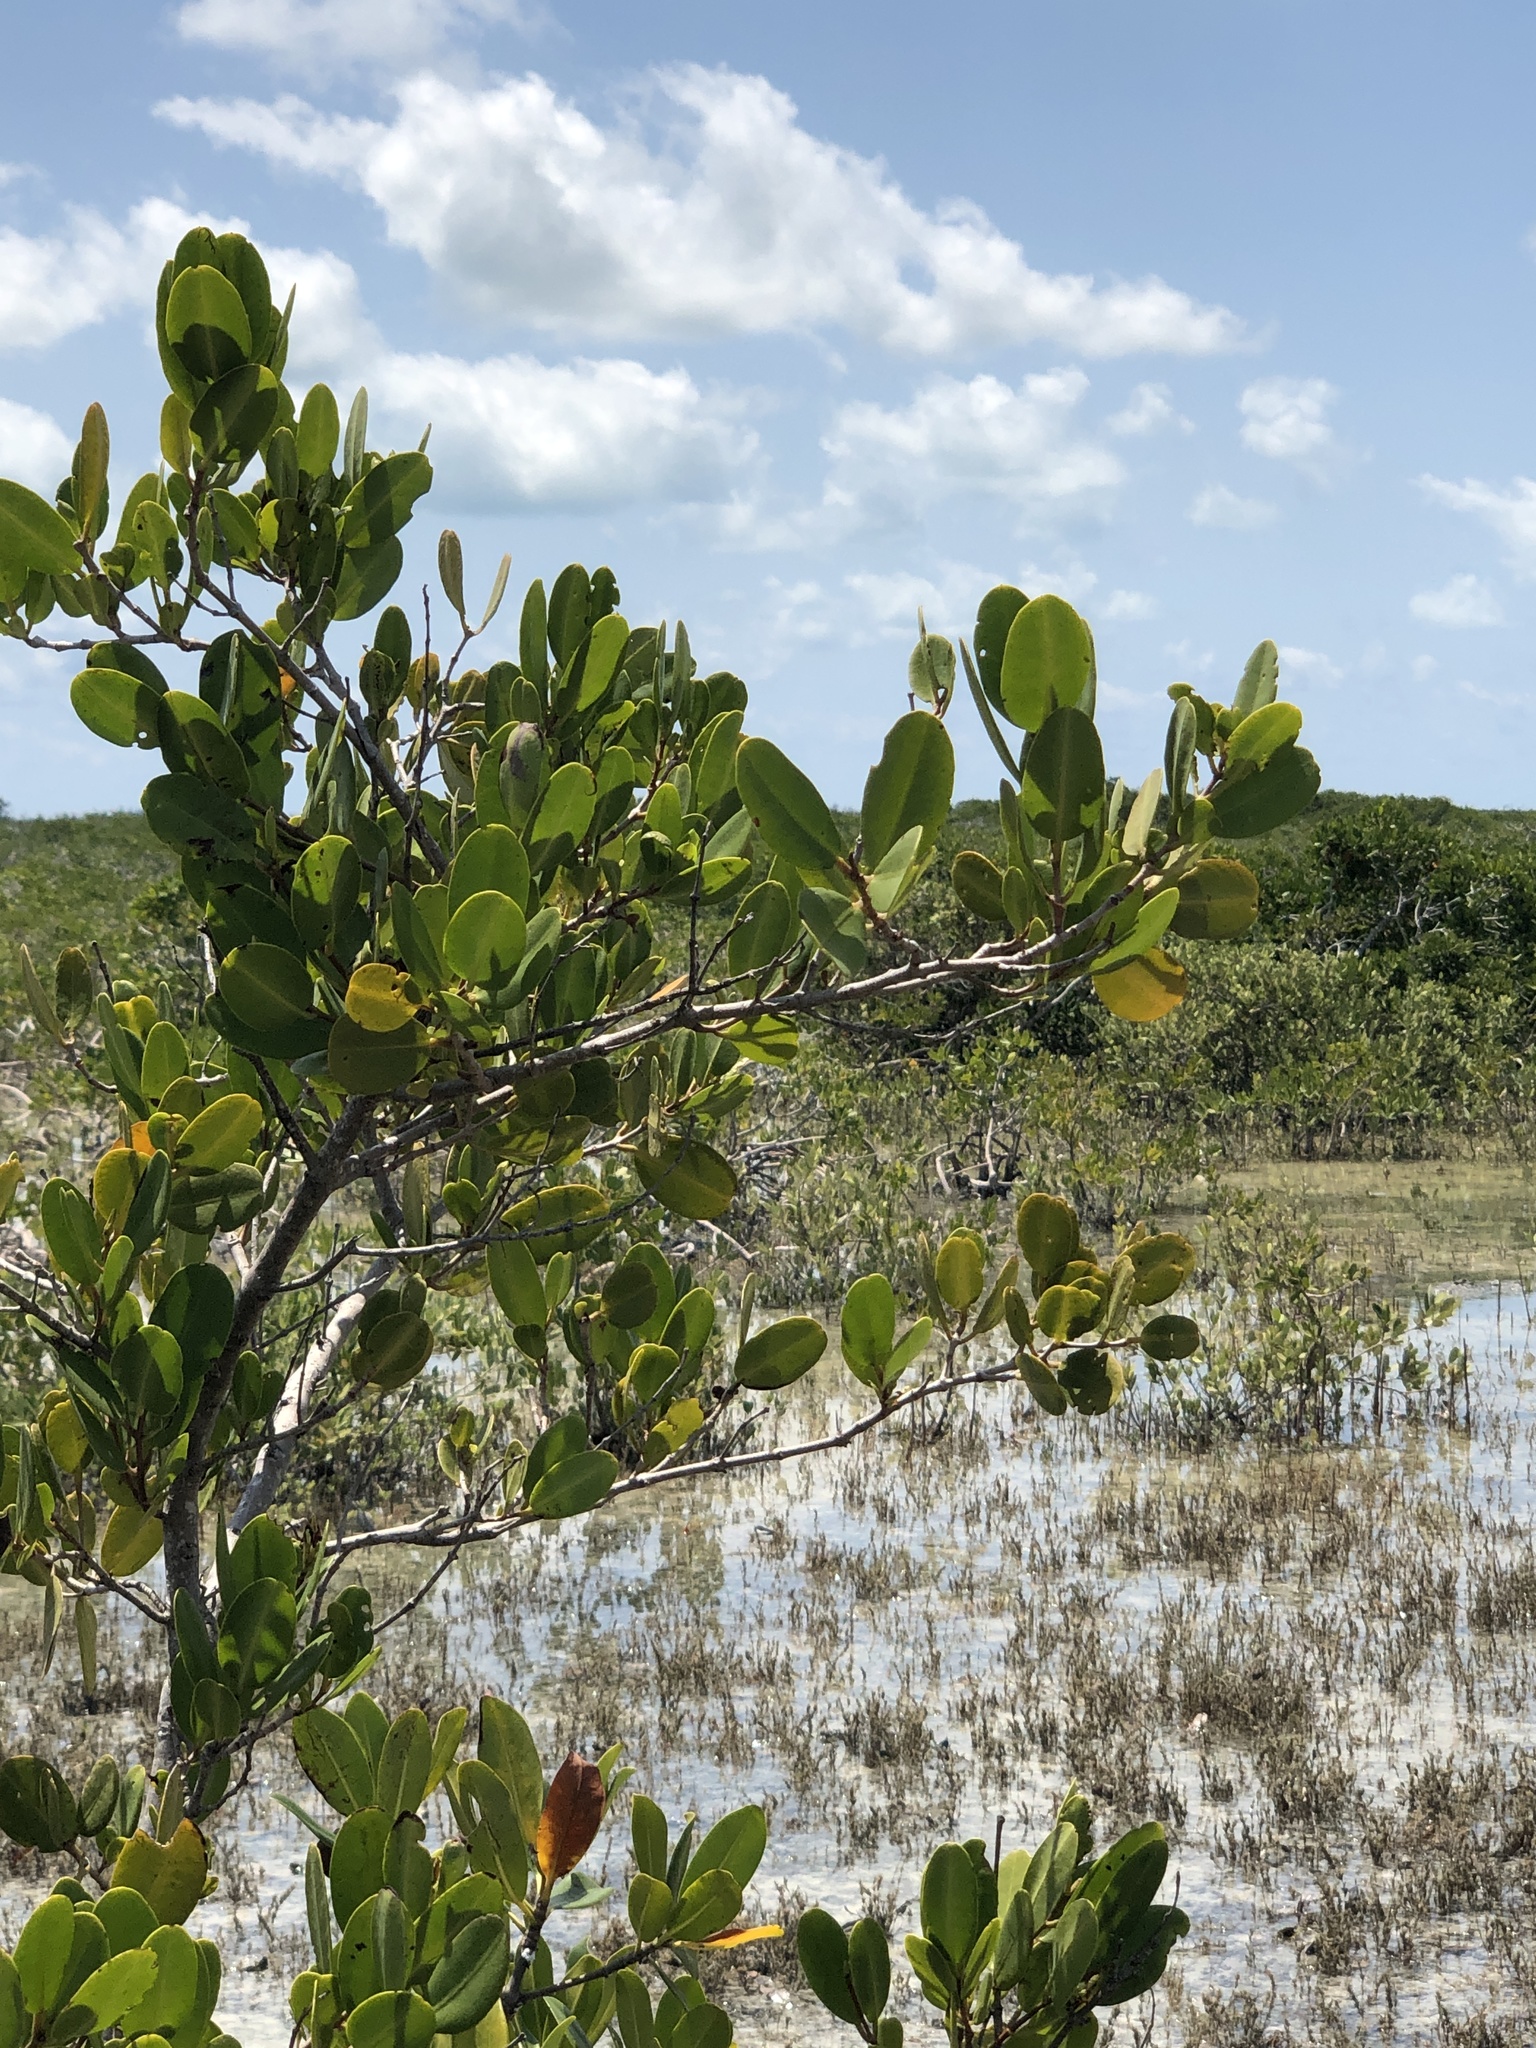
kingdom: Plantae
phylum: Tracheophyta
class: Magnoliopsida
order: Myrtales
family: Combretaceae
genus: Laguncularia
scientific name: Laguncularia racemosa
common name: White mangrove
